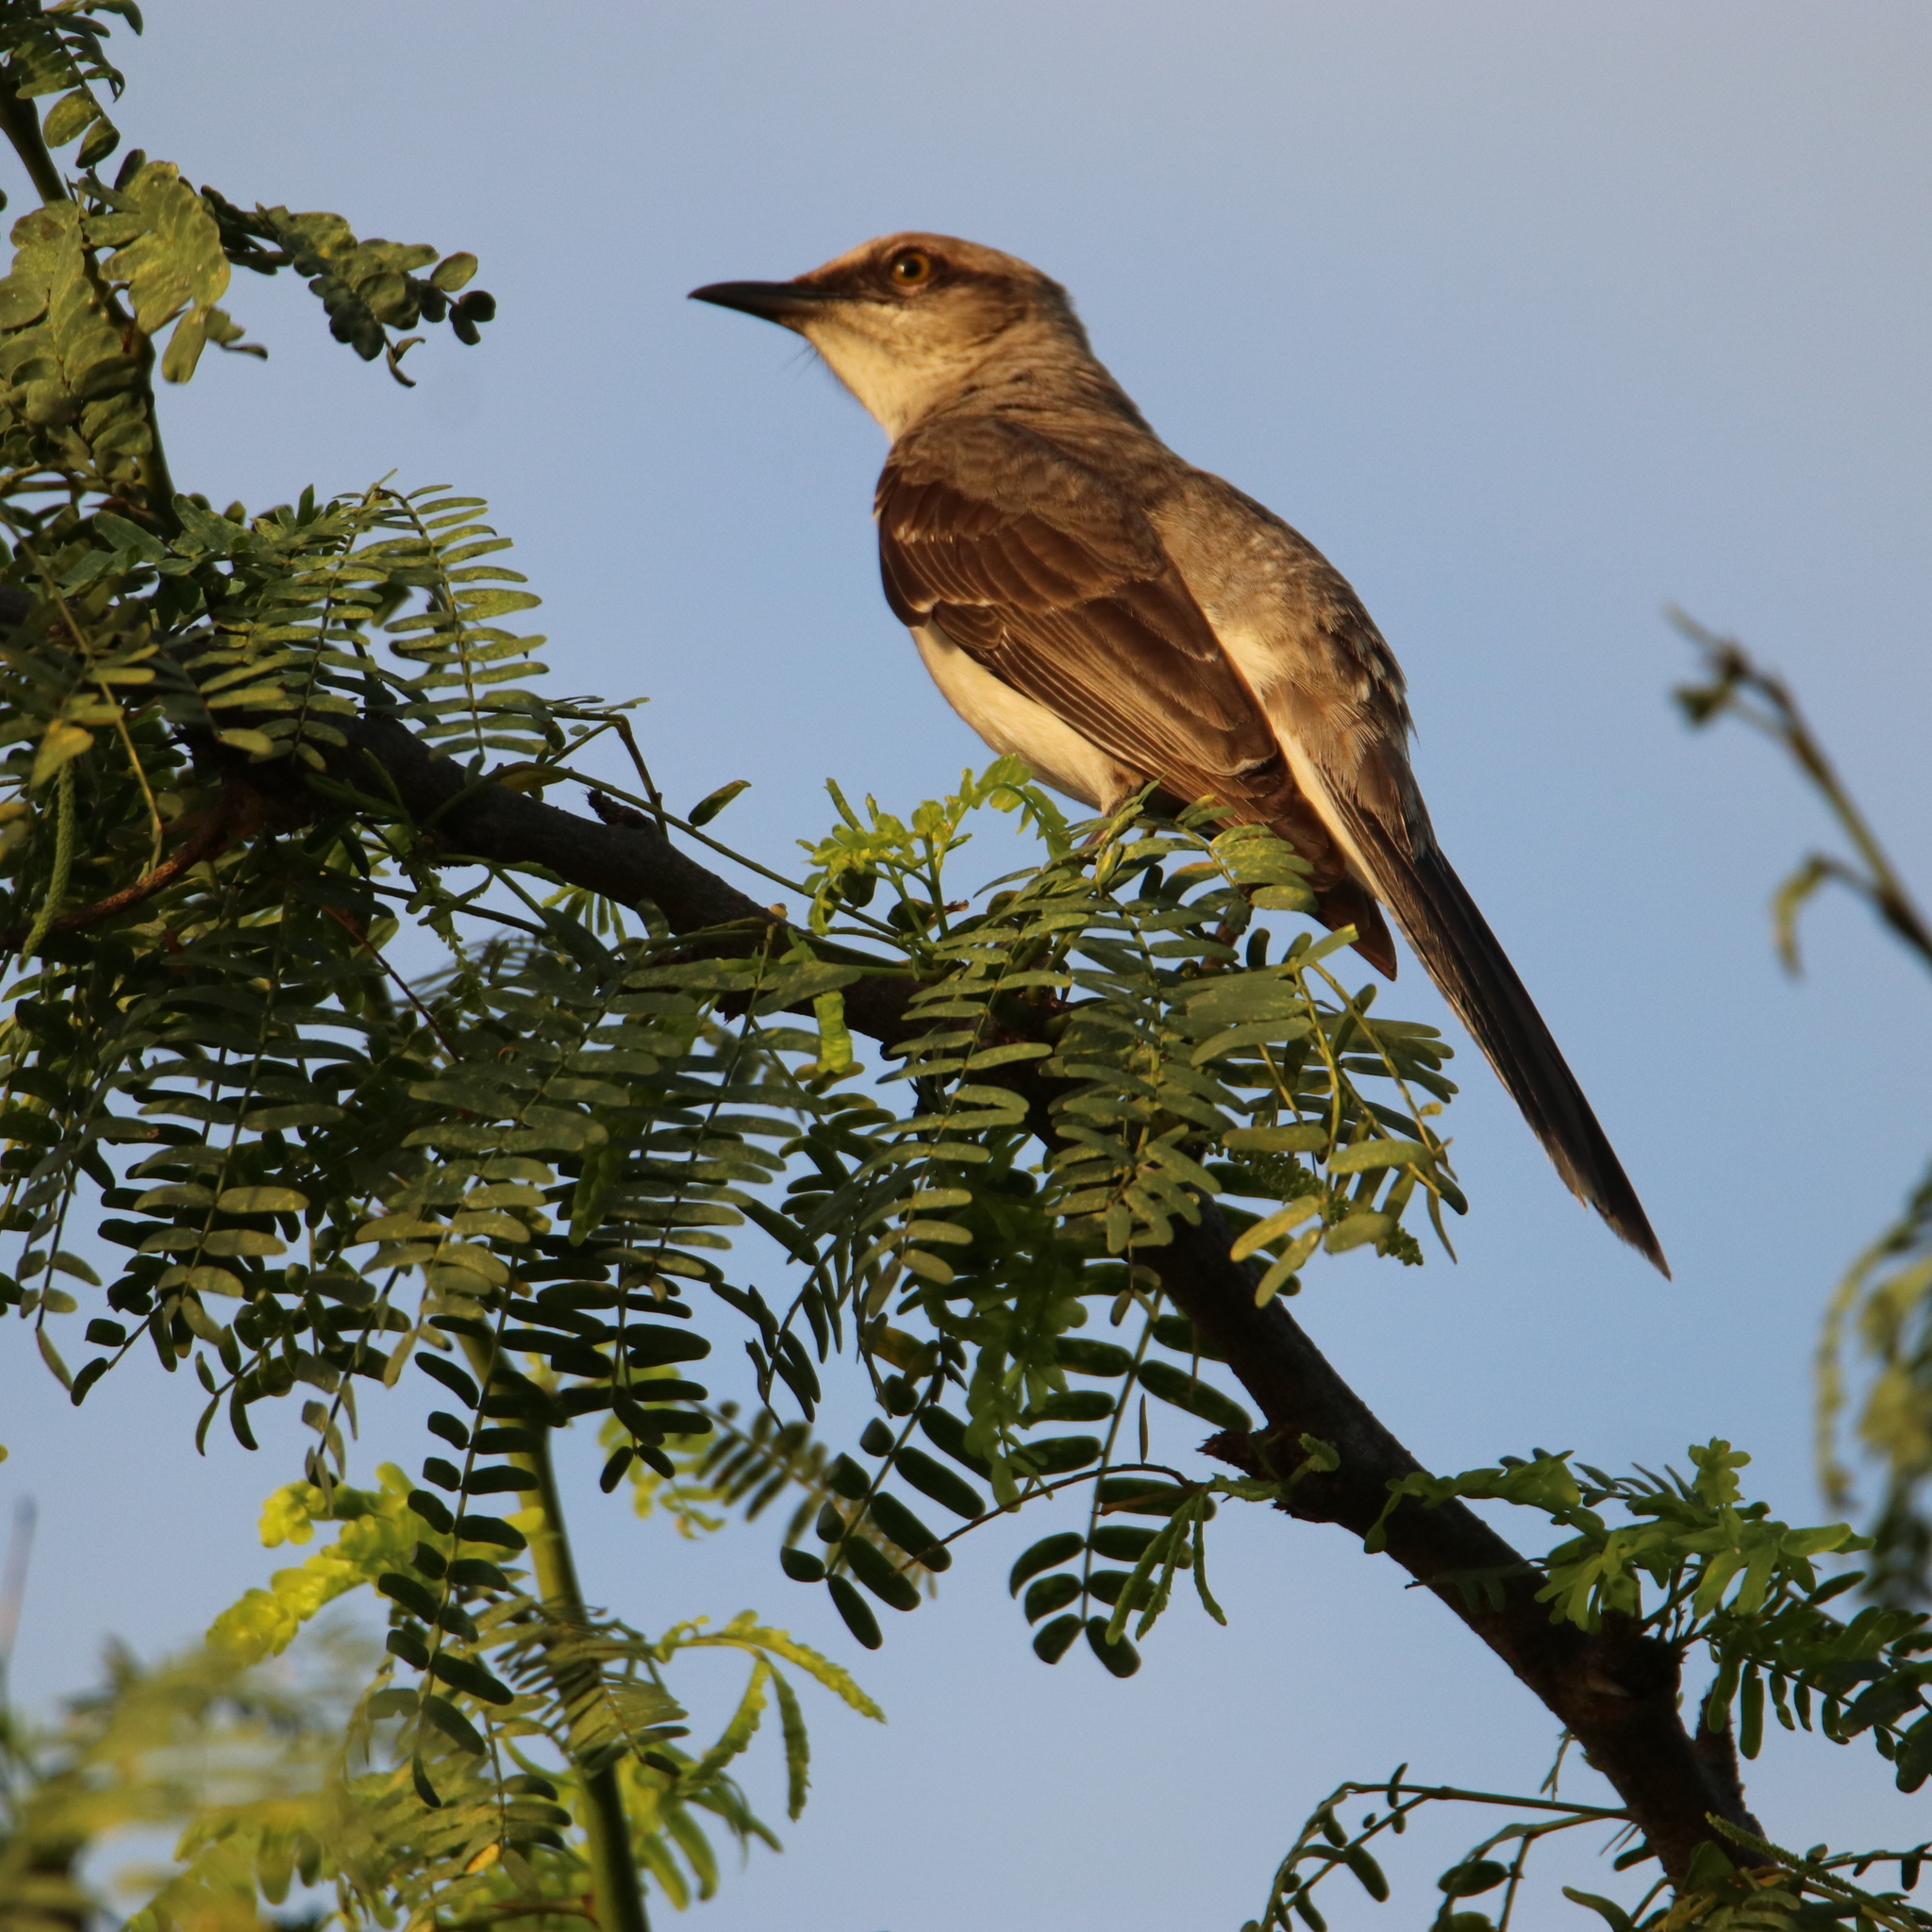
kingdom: Animalia
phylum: Chordata
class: Aves
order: Passeriformes
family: Mimidae
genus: Mimus
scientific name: Mimus gilvus
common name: Tropical mockingbird
